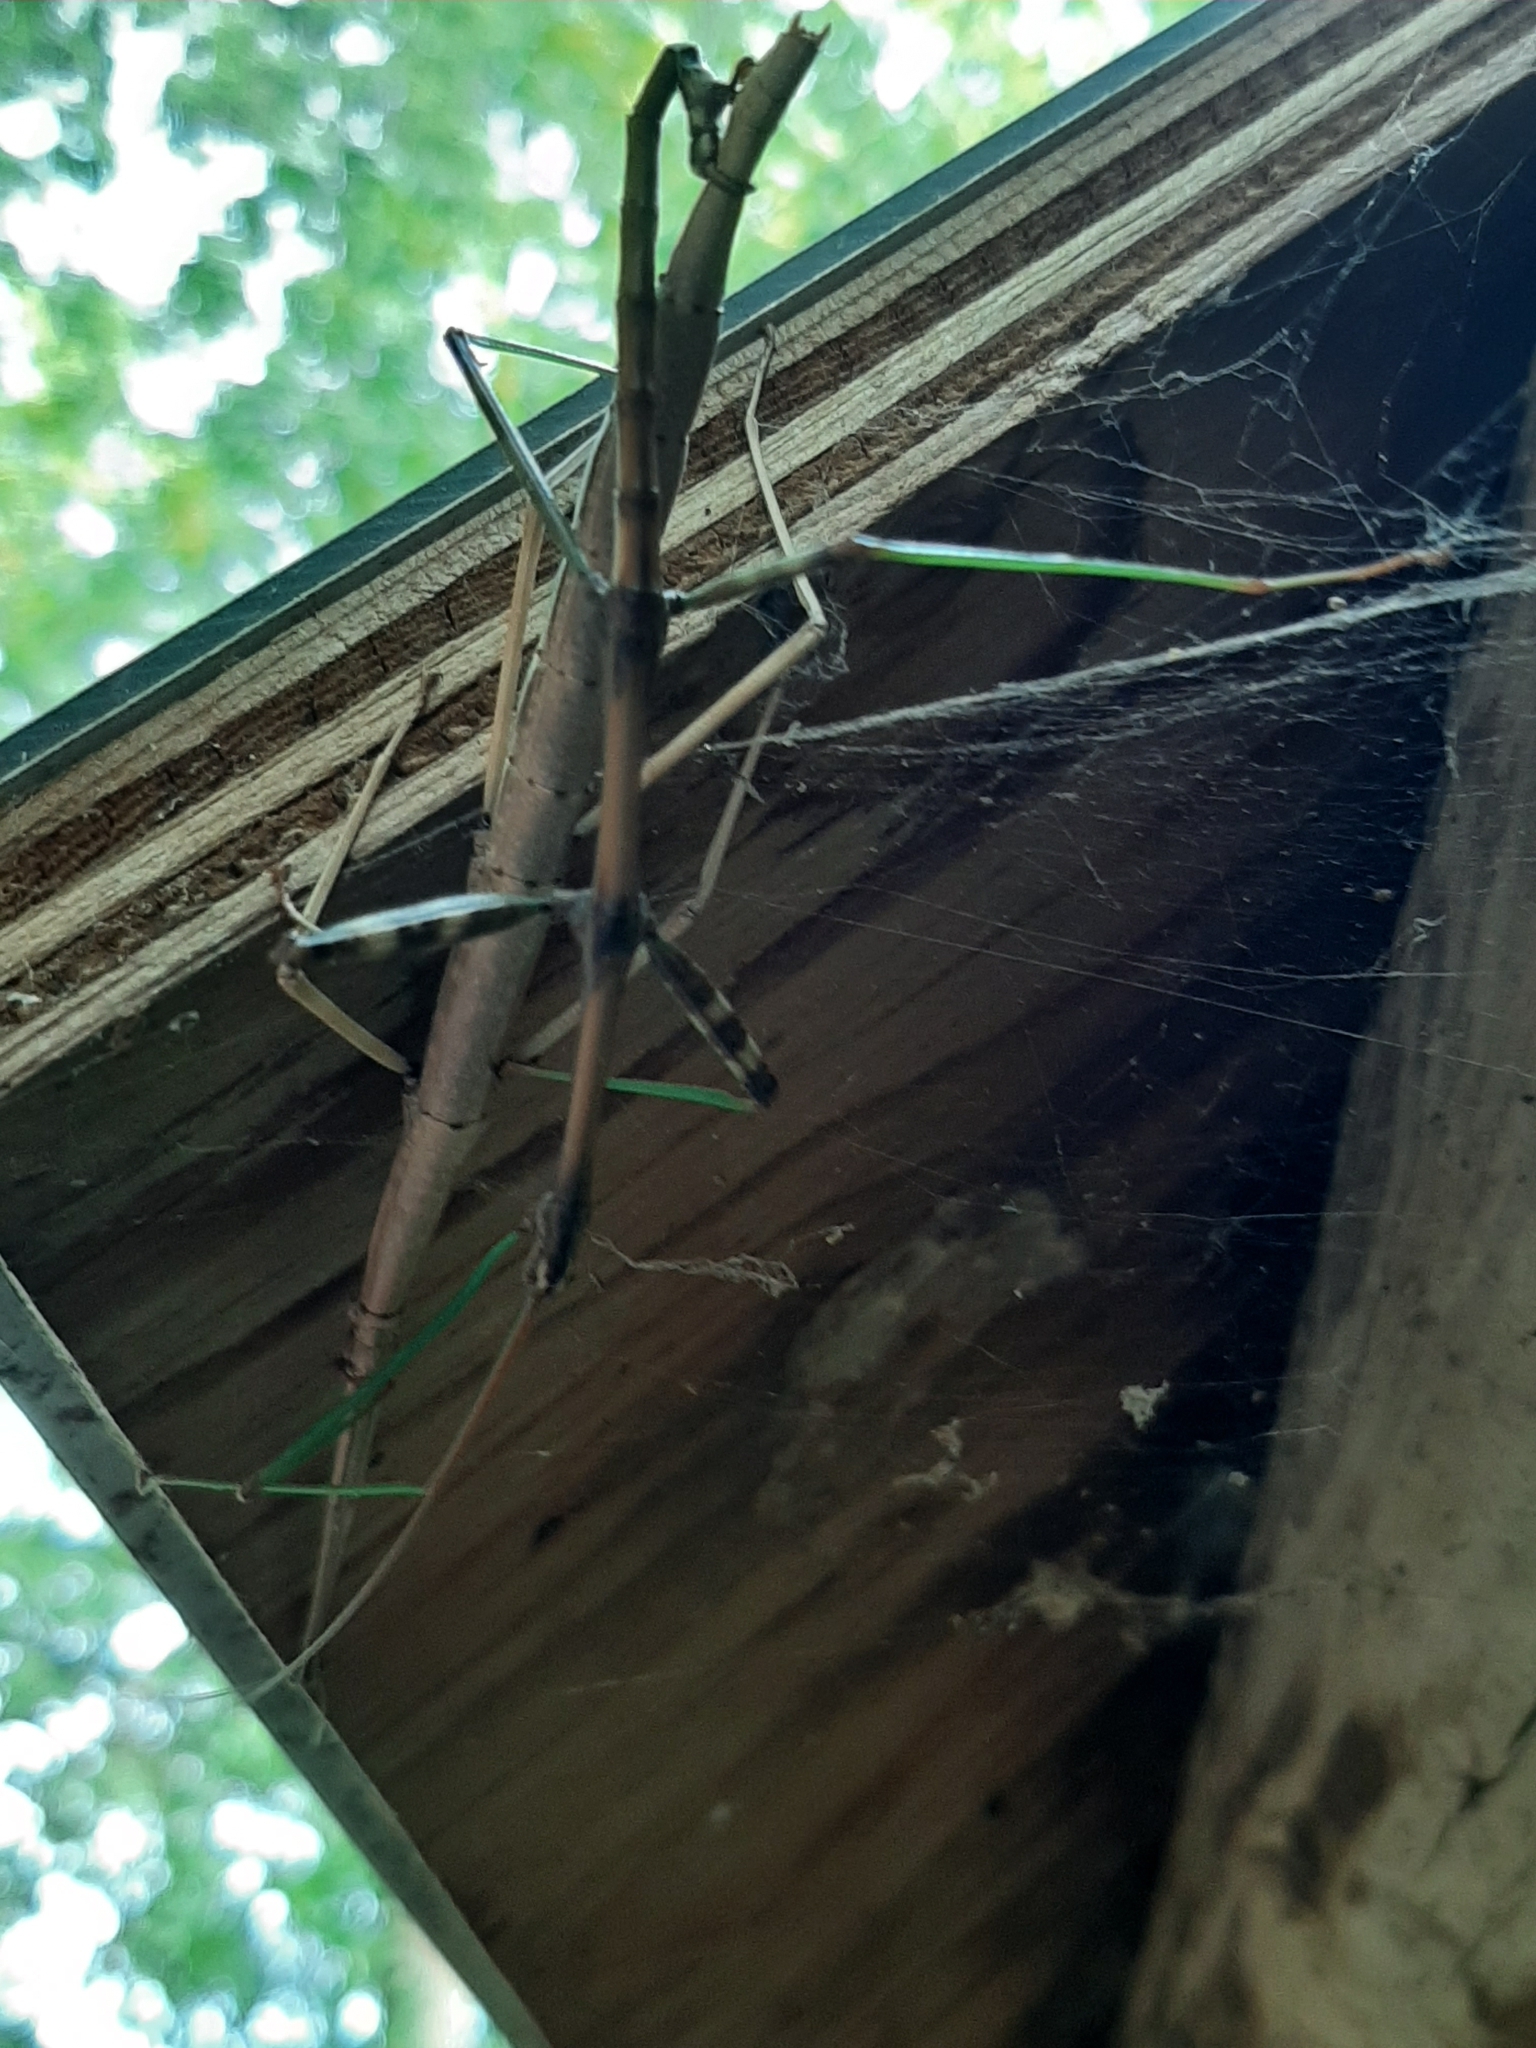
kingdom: Animalia
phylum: Arthropoda
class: Insecta
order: Phasmida
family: Diapheromeridae
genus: Diapheromera
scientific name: Diapheromera femorata
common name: Common american walkingstick
